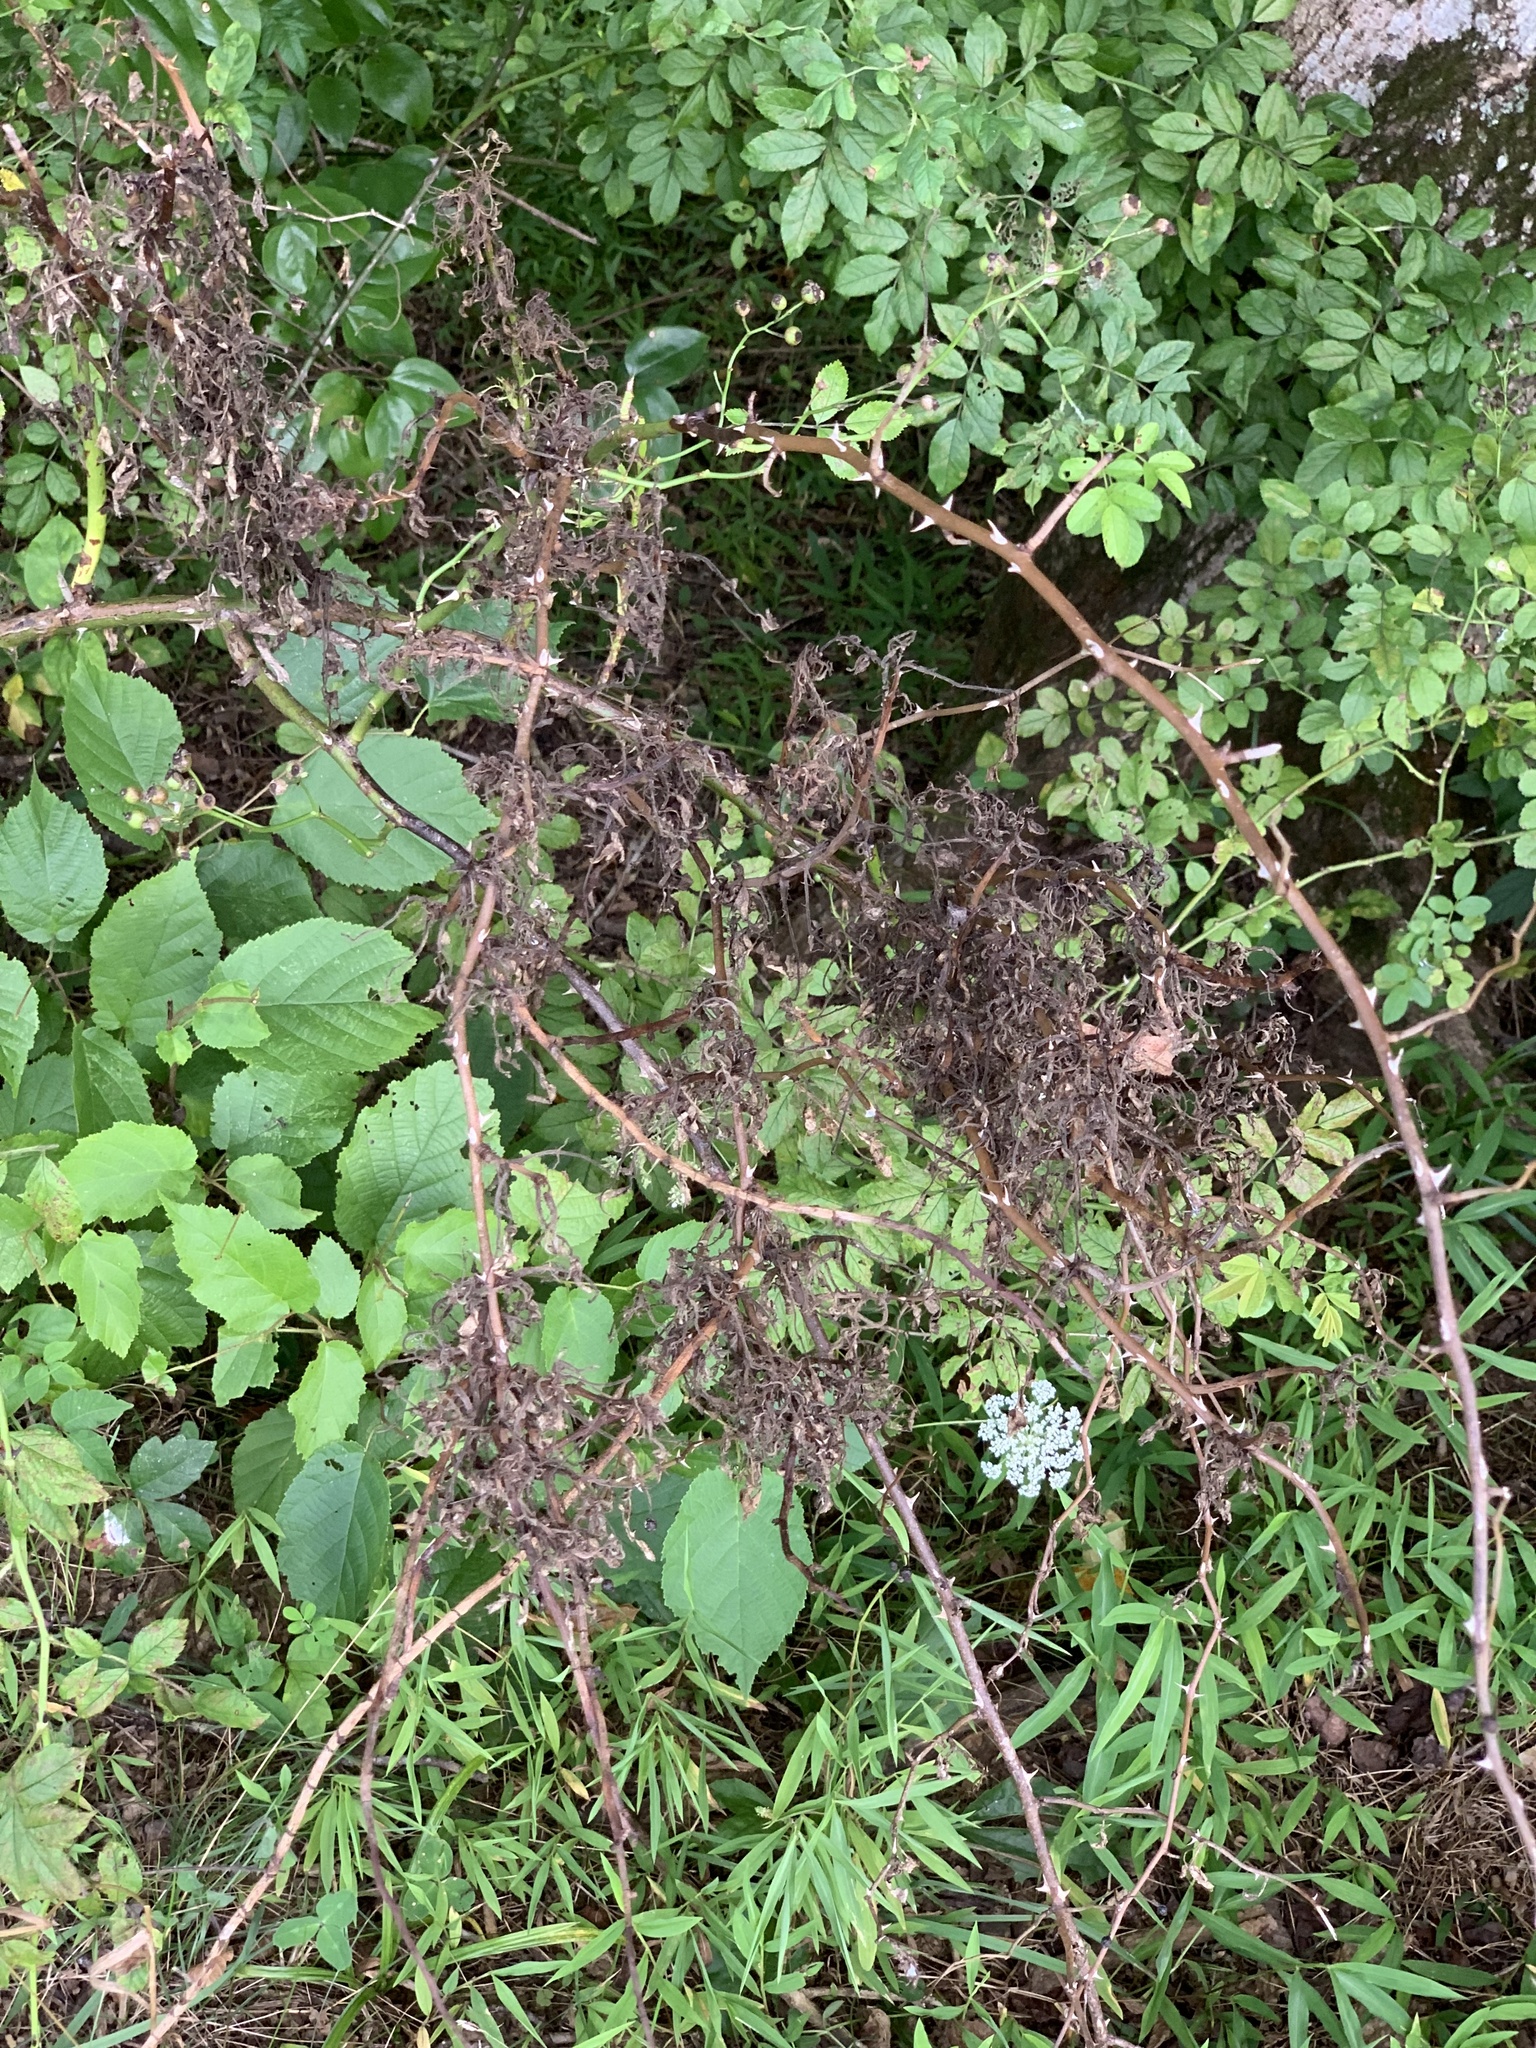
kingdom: Plantae
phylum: Tracheophyta
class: Magnoliopsida
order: Rosales
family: Rosaceae
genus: Rosa
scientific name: Rosa multiflora
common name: Multiflora rose
